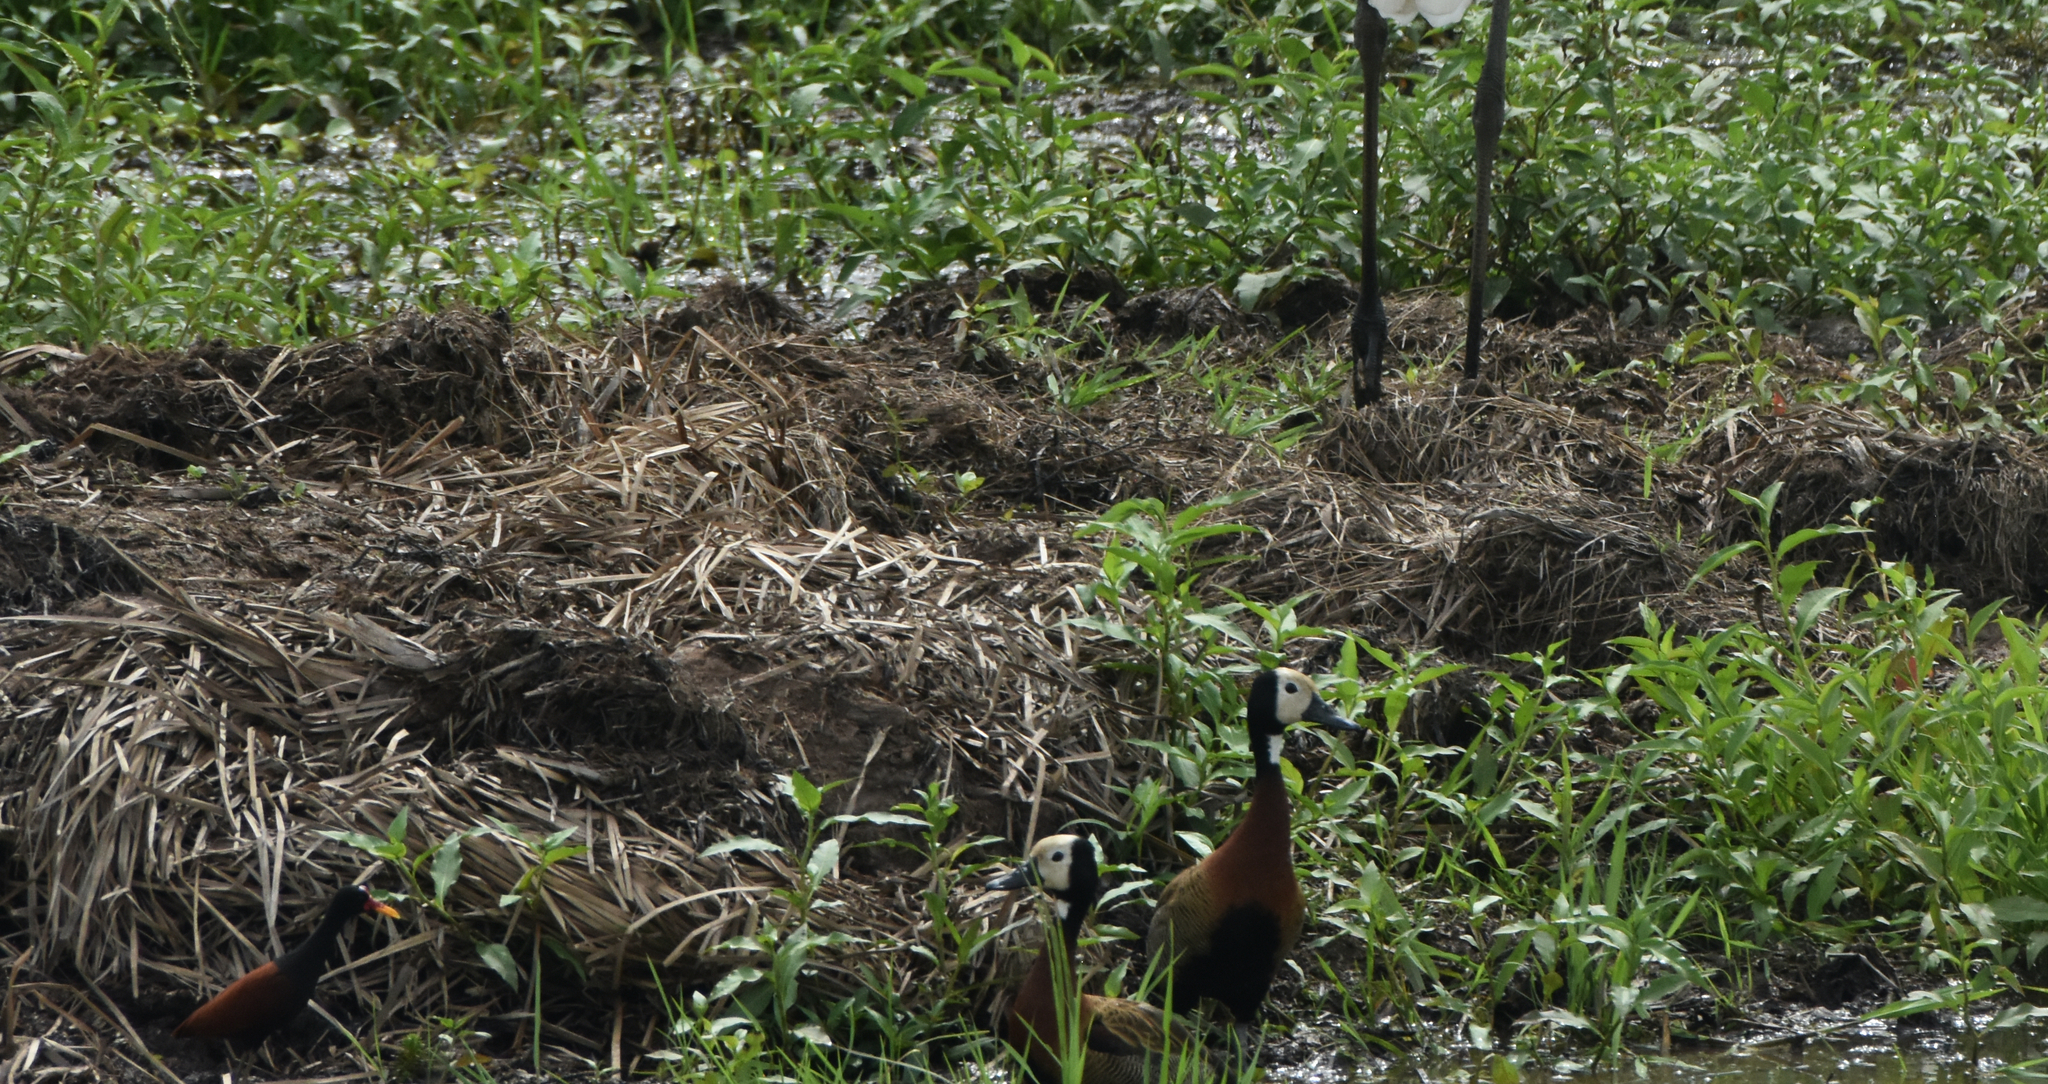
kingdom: Animalia
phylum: Chordata
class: Aves
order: Charadriiformes
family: Jacanidae
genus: Jacana
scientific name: Jacana jacana
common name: Wattled jacana
